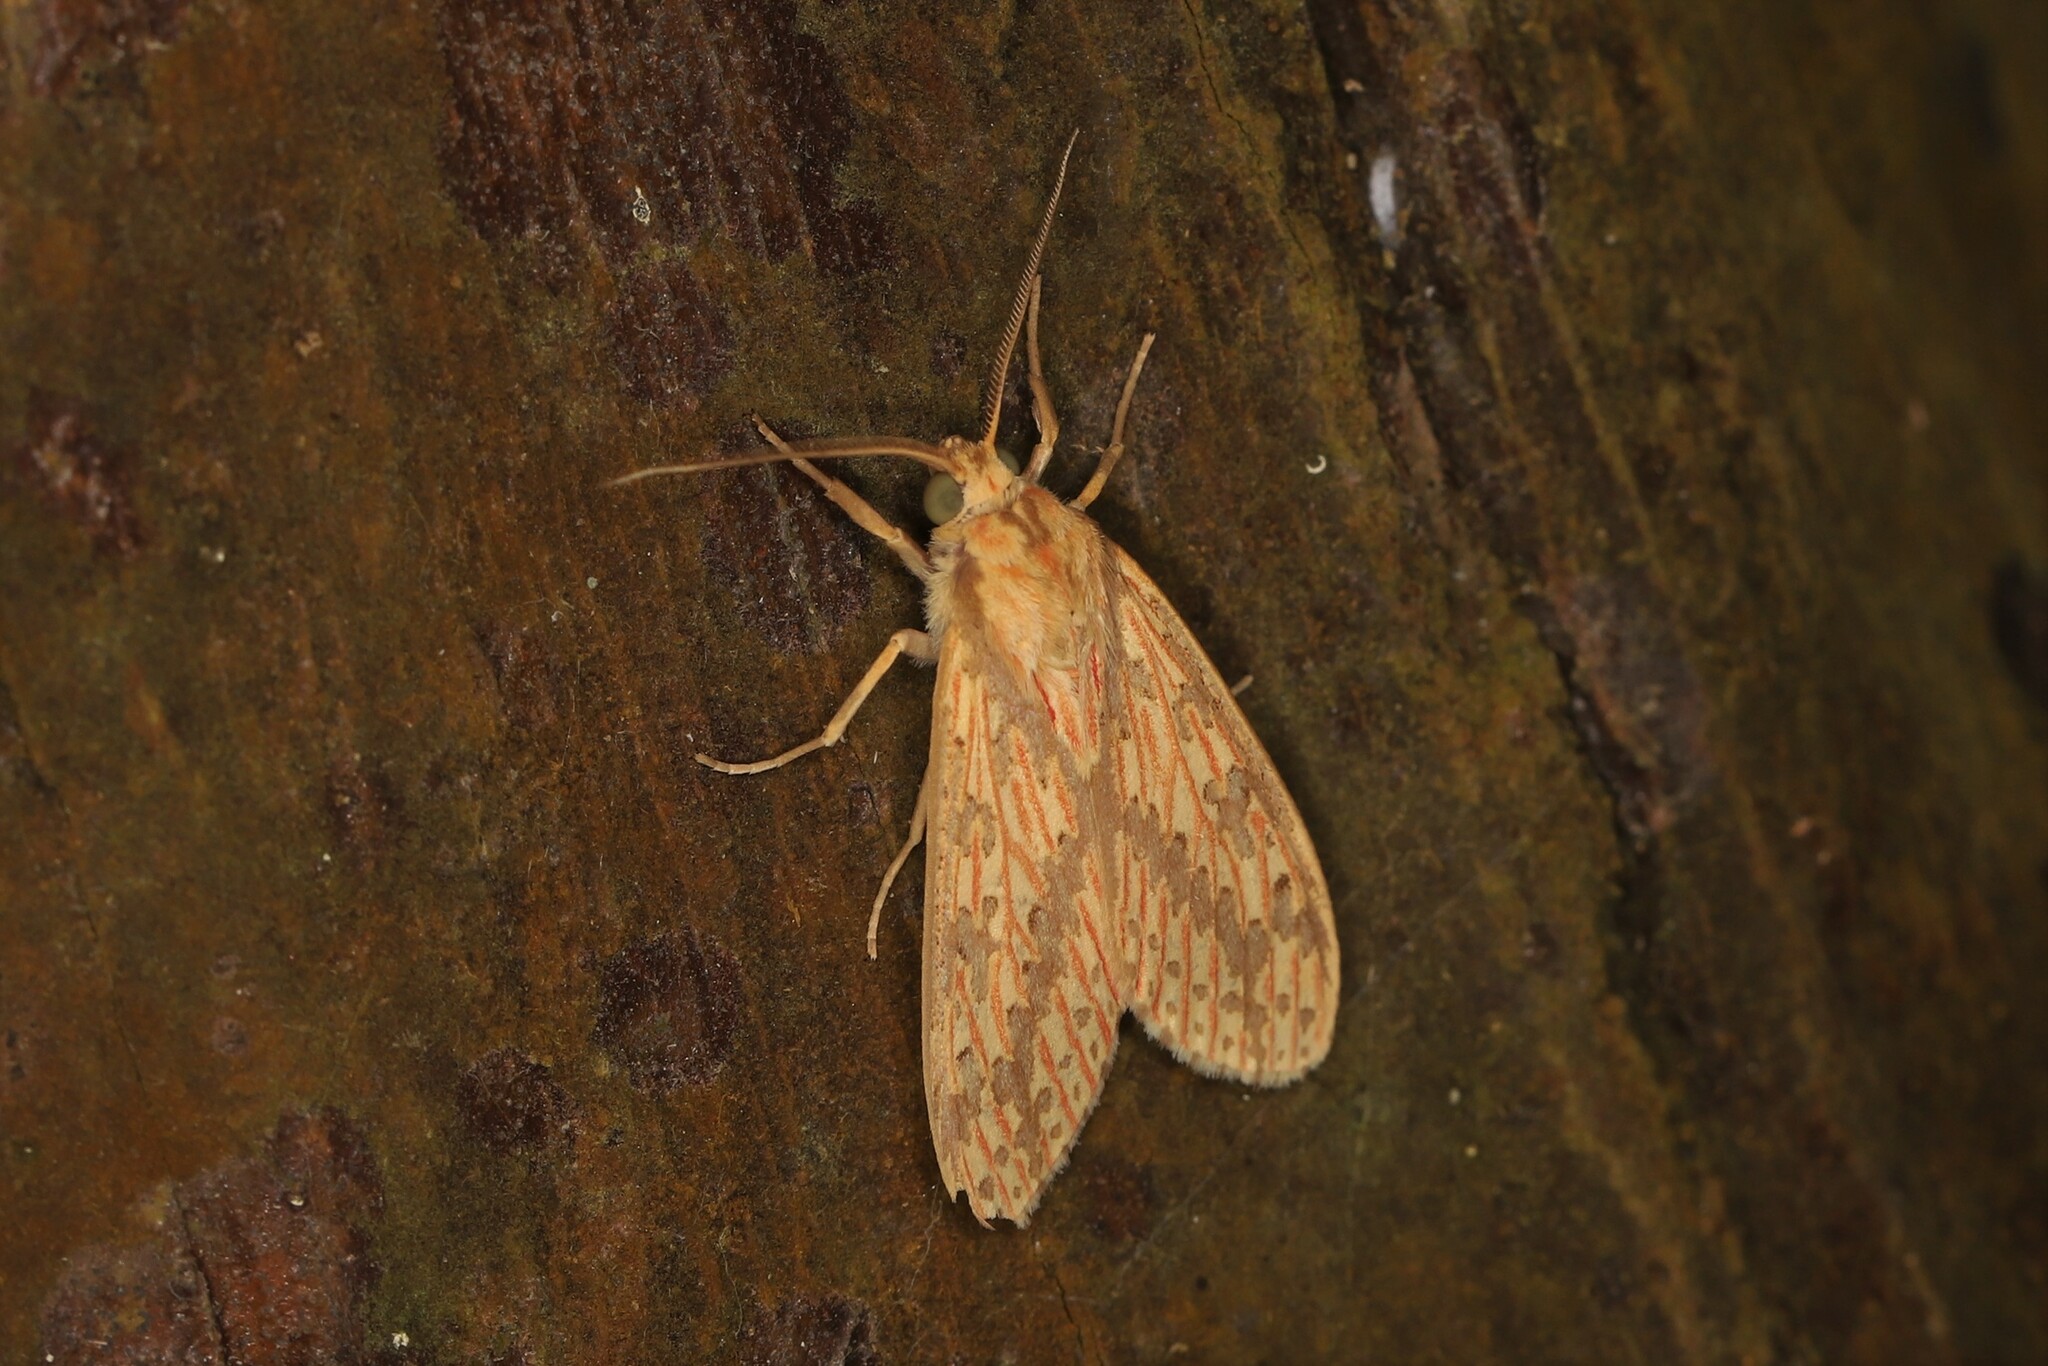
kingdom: Animalia
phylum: Arthropoda
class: Insecta
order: Lepidoptera
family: Erebidae
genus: Haemaphlebiella
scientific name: Haemaphlebiella strigata
